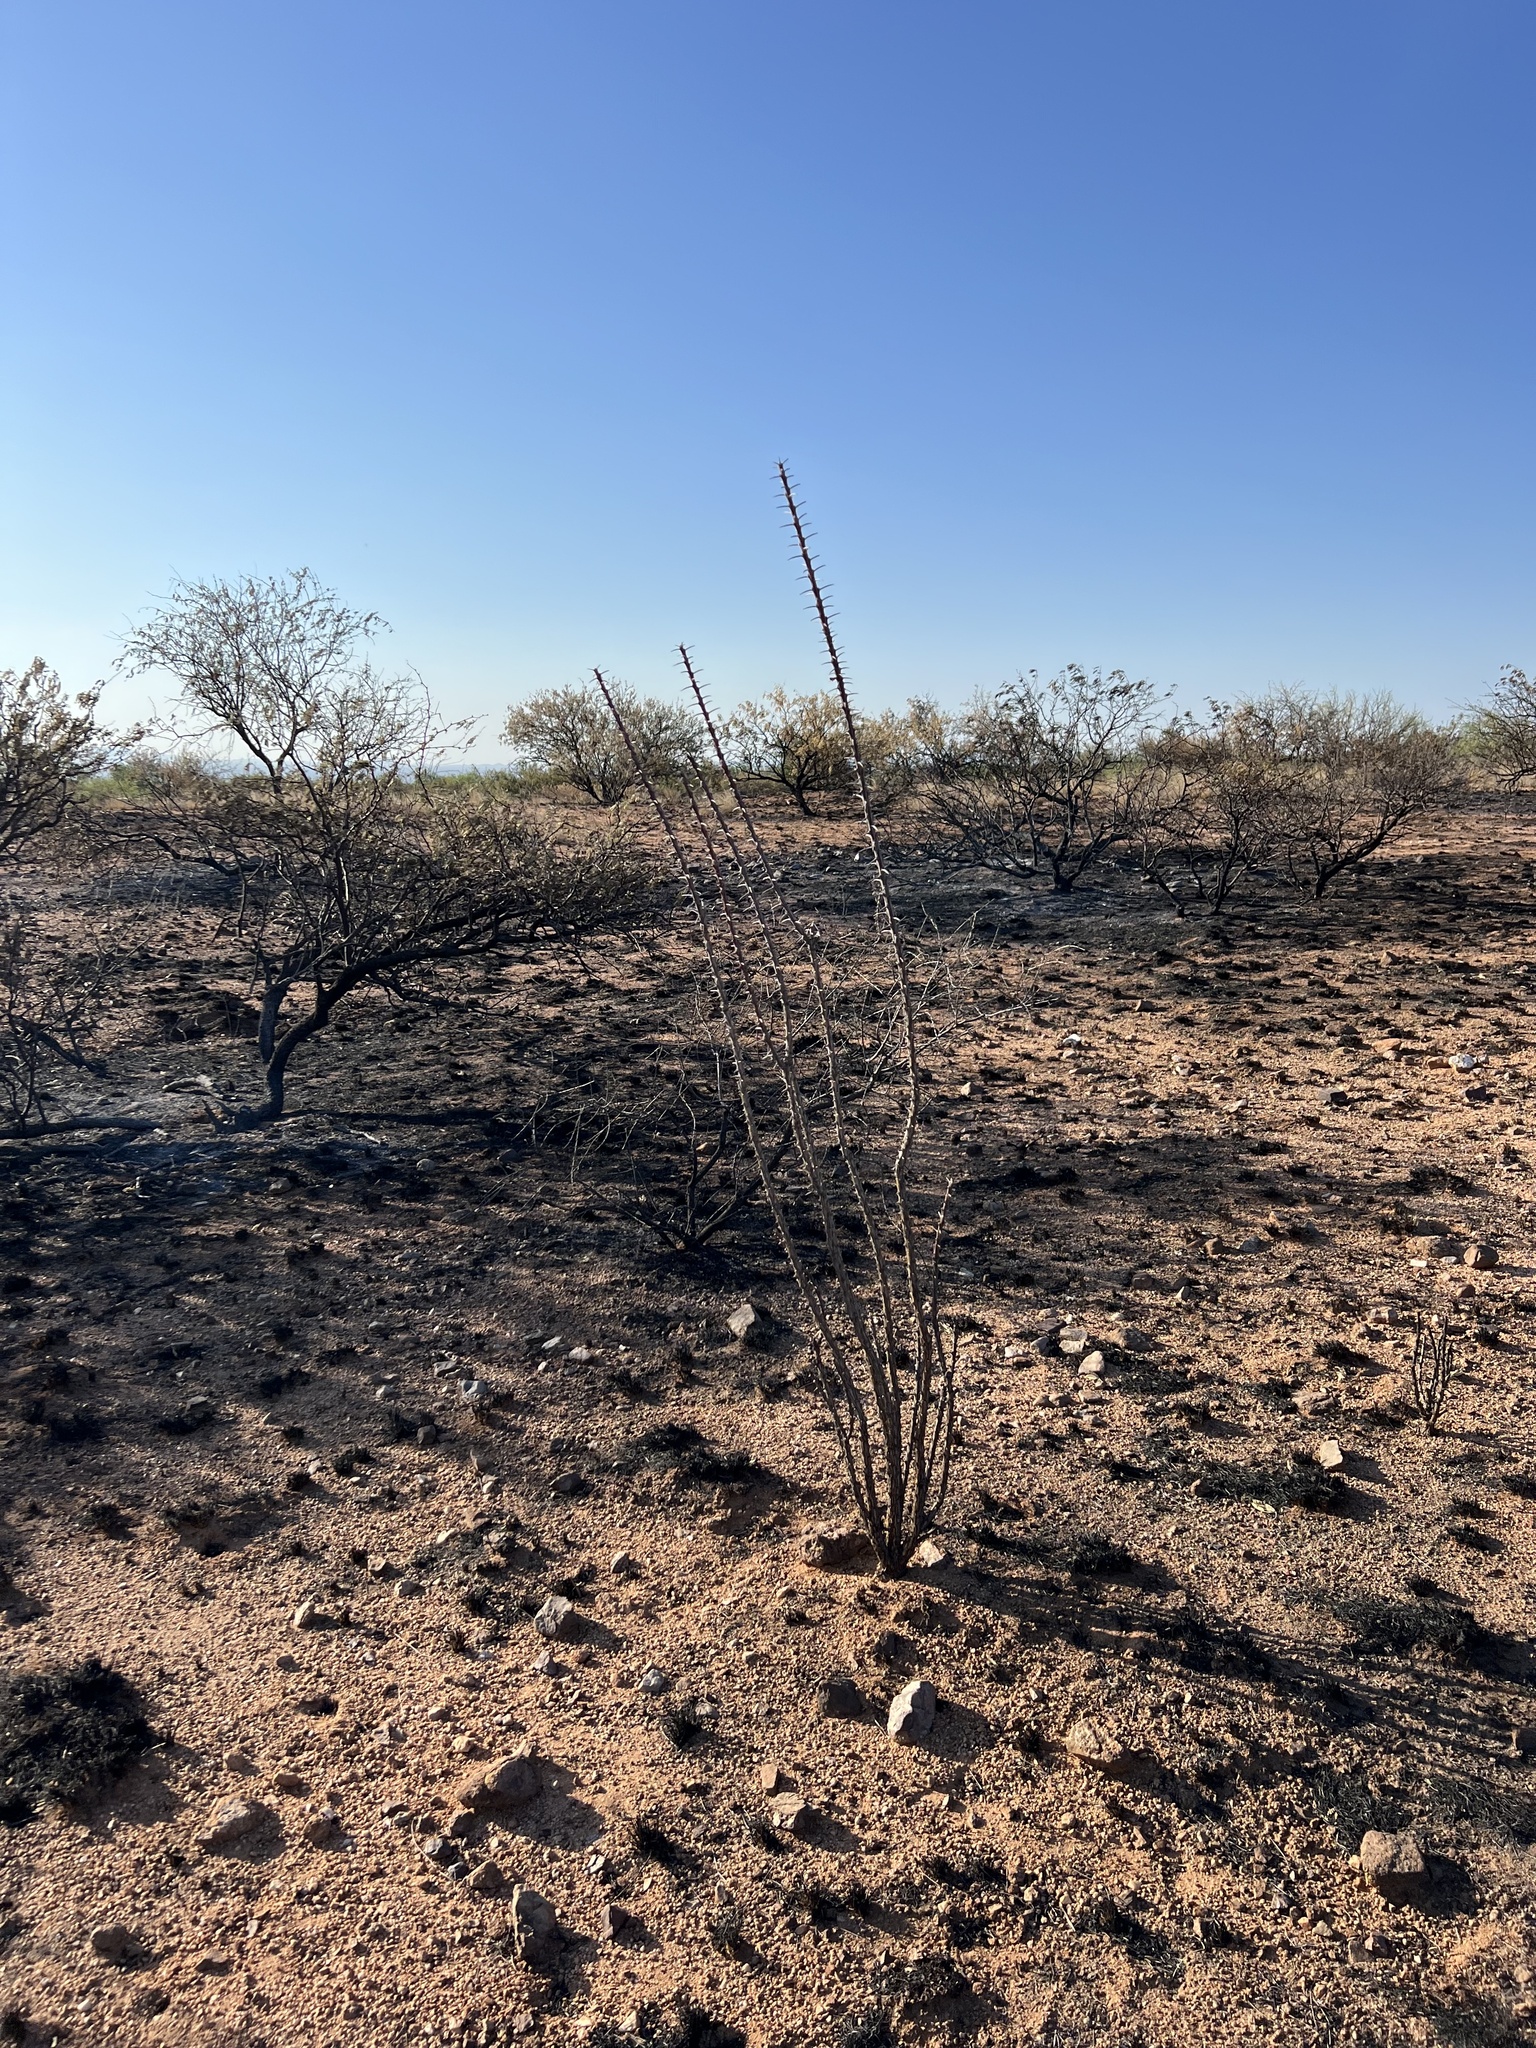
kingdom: Plantae
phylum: Tracheophyta
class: Magnoliopsida
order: Ericales
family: Fouquieriaceae
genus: Fouquieria
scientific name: Fouquieria splendens
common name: Vine-cactus
